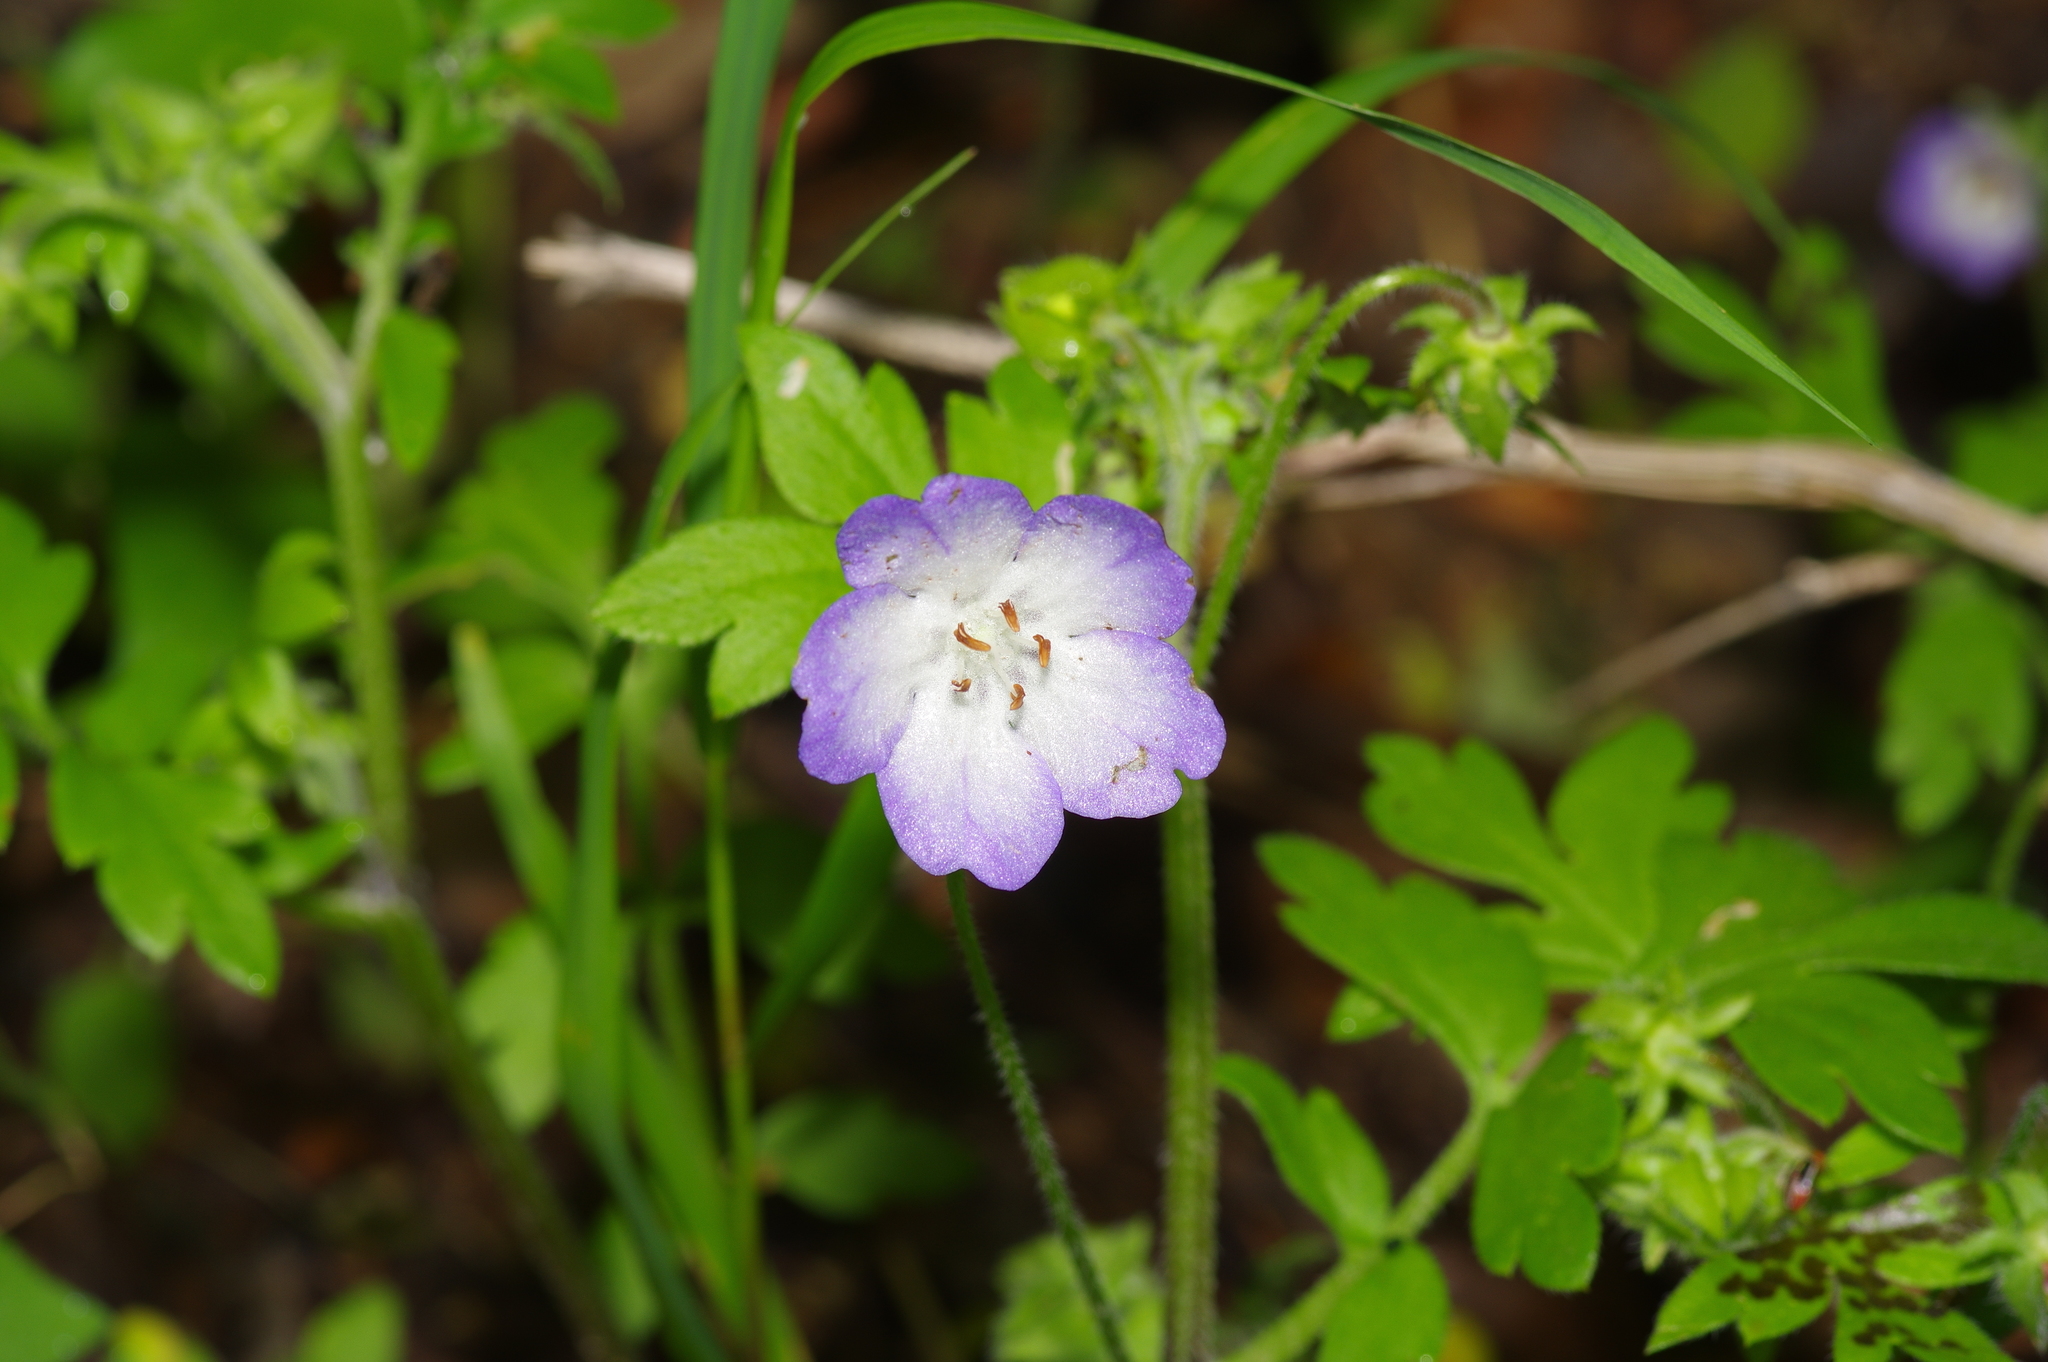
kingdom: Plantae
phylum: Tracheophyta
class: Magnoliopsida
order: Boraginales
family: Hydrophyllaceae
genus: Nemophila
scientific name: Nemophila phacelioides
